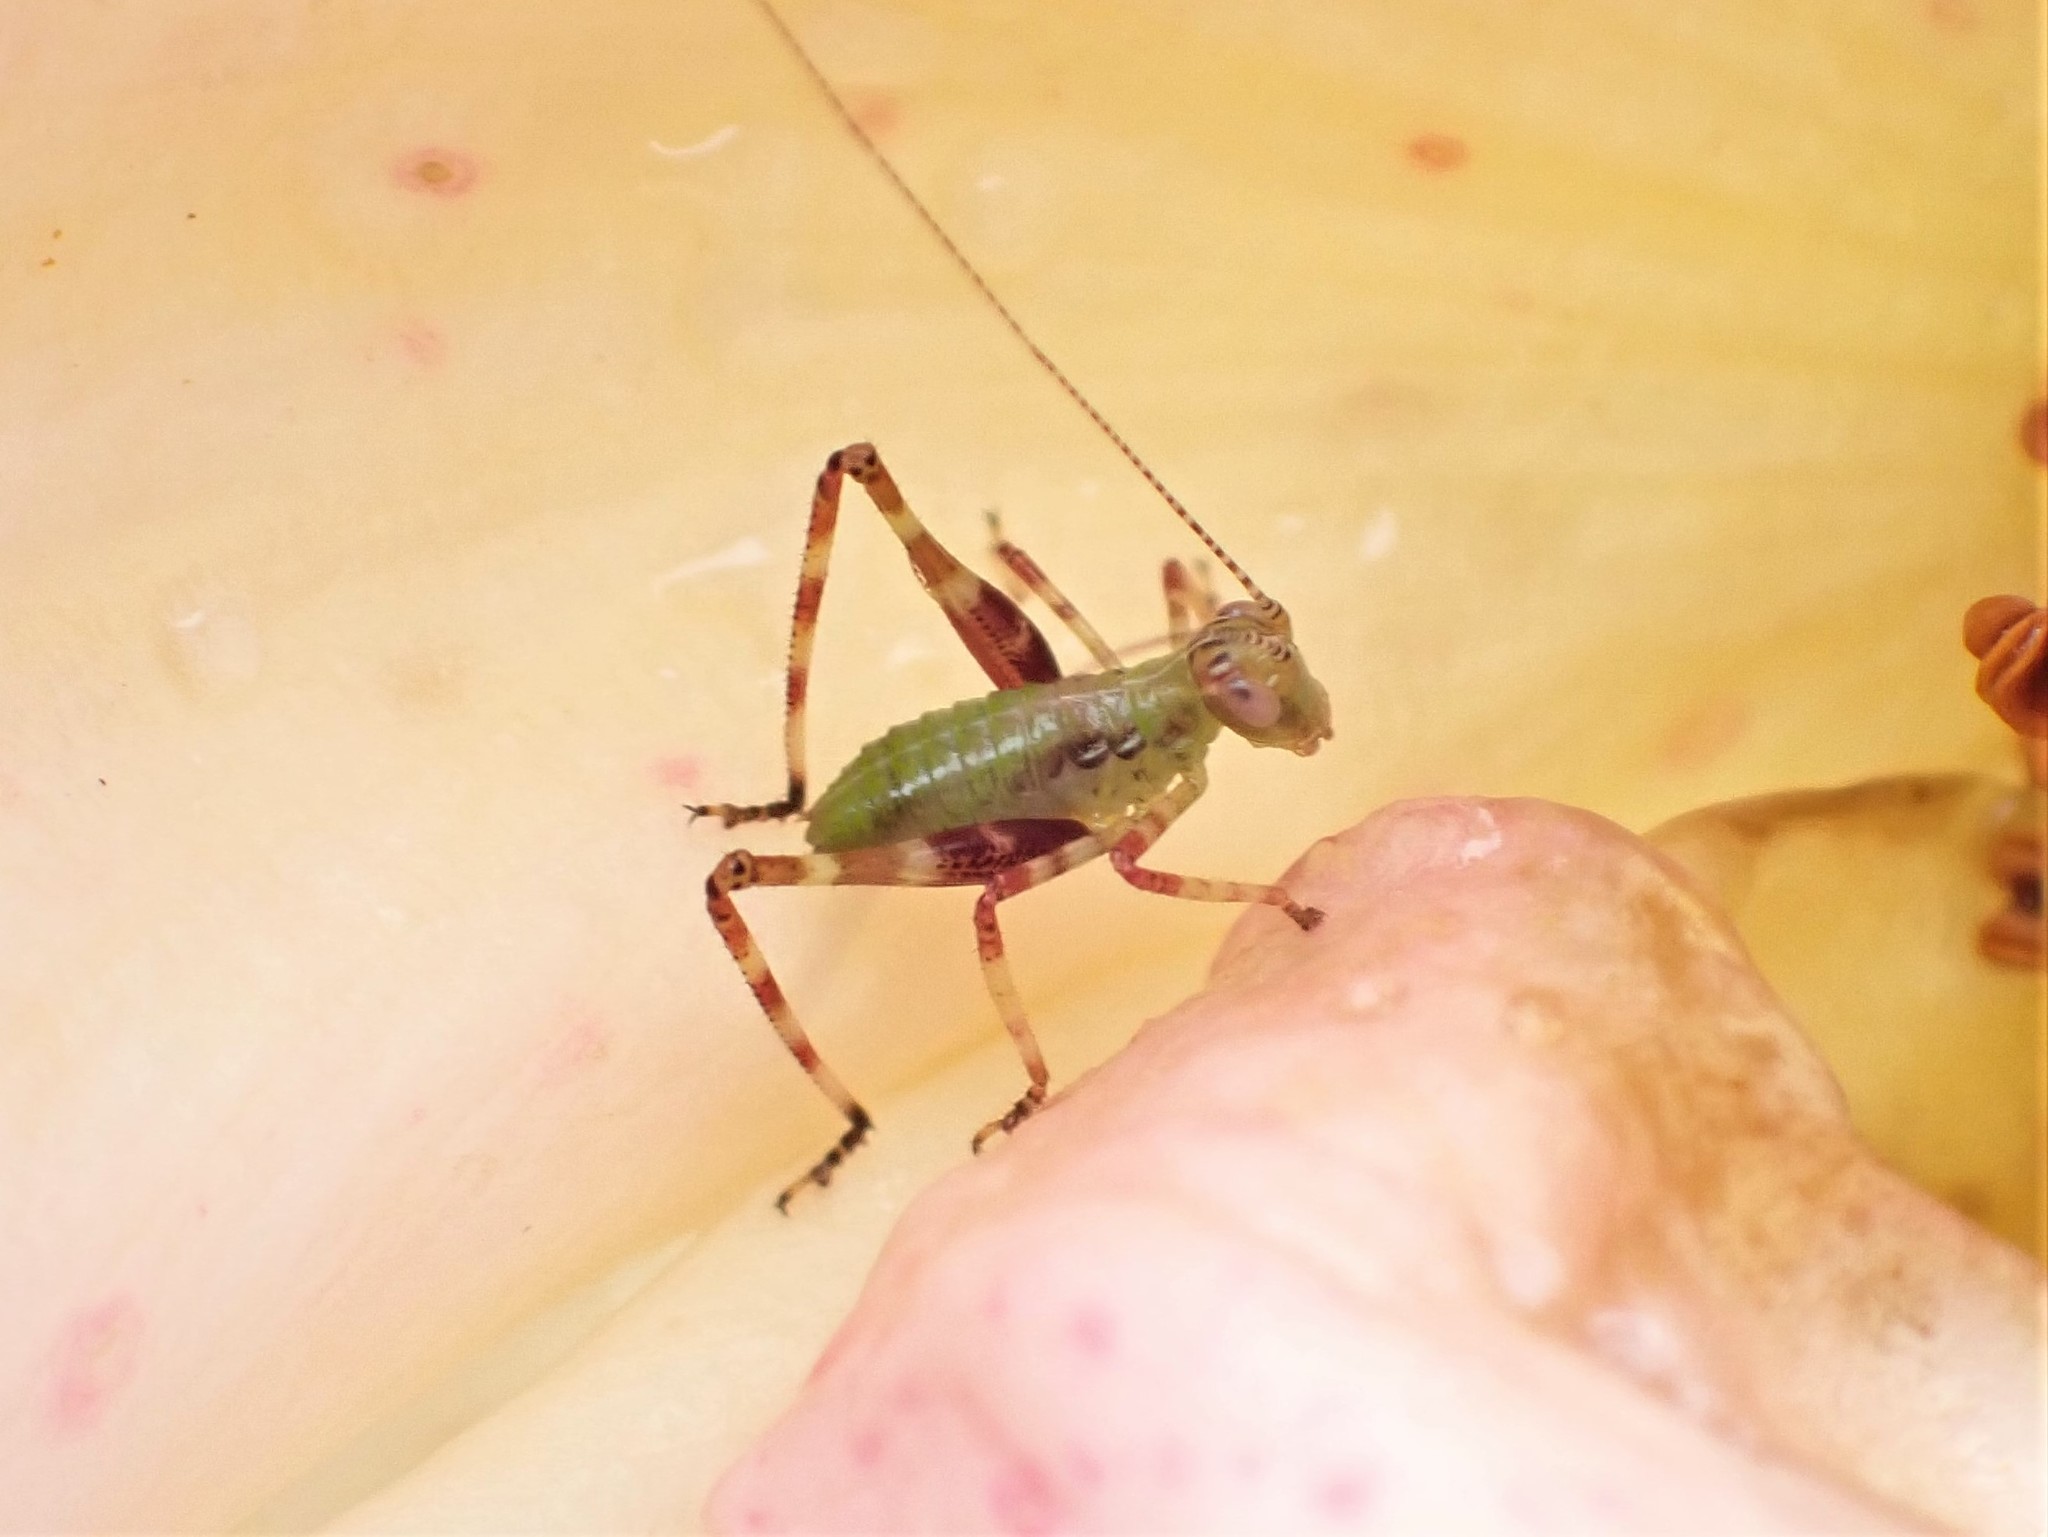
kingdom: Animalia
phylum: Arthropoda
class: Insecta
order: Orthoptera
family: Tettigoniidae
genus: Caedicia
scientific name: Caedicia simplex
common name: Common garden katydid
